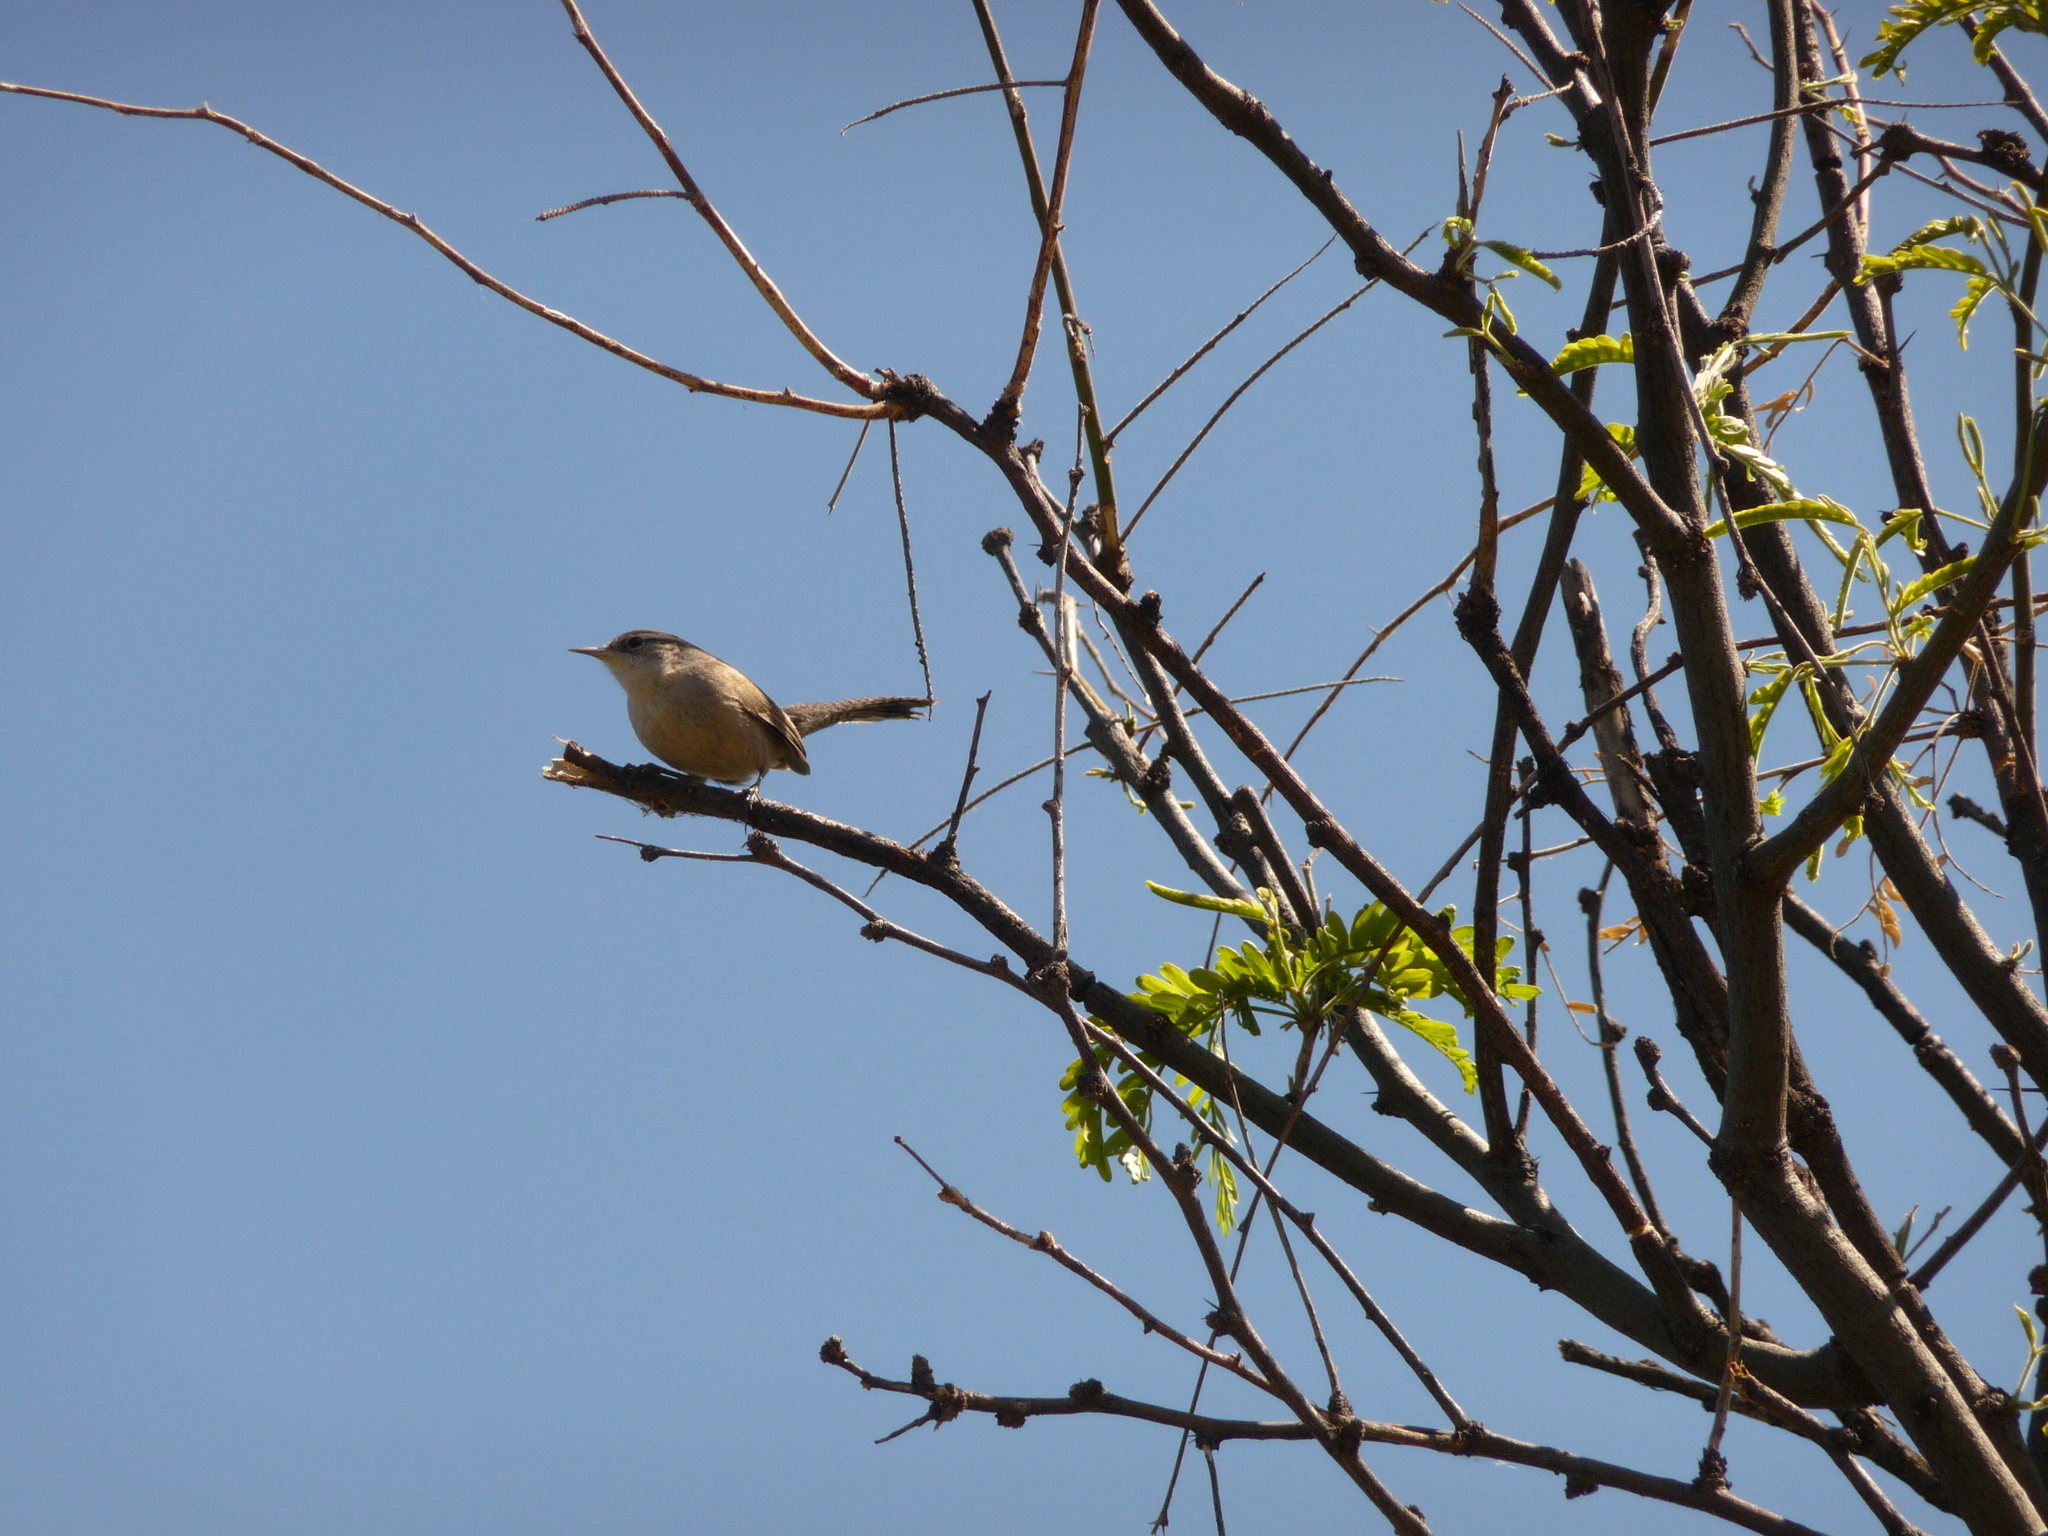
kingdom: Animalia
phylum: Chordata
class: Aves
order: Passeriformes
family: Troglodytidae
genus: Thryomanes
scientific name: Thryomanes bewickii
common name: Bewick's wren
